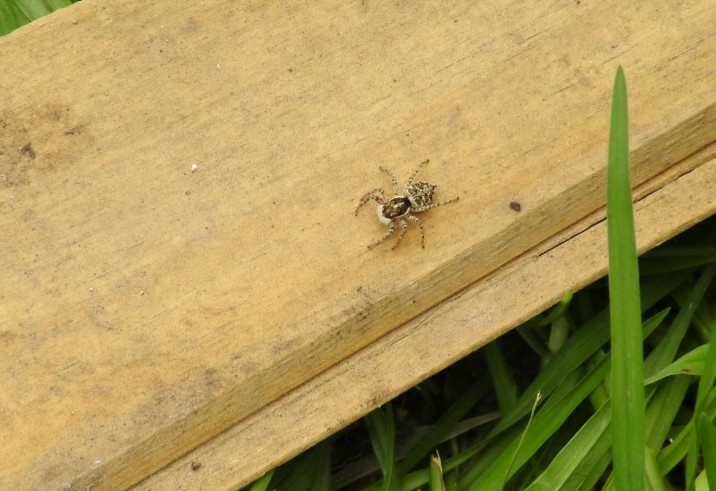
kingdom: Animalia
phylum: Arthropoda
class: Arachnida
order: Araneae
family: Salticidae
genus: Menemerus
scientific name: Menemerus semilimbatus
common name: Jumping spider
